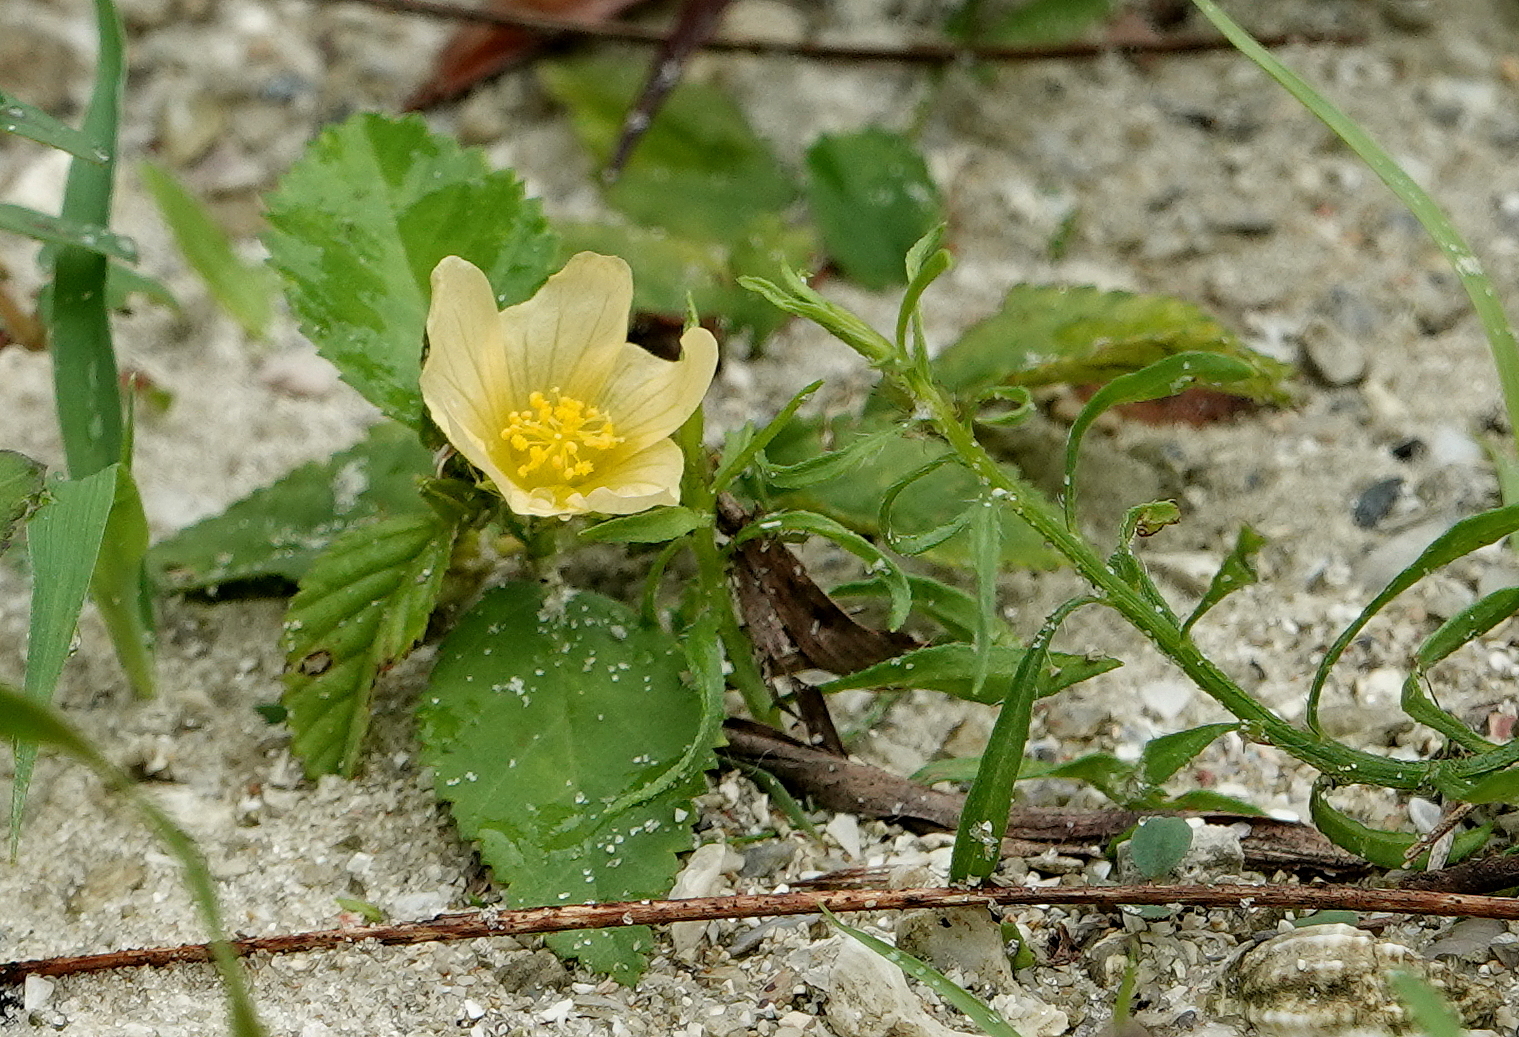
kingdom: Plantae
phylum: Tracheophyta
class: Magnoliopsida
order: Malvales
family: Malvaceae
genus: Sida
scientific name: Sida rhombifolia
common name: Queensland-hemp
